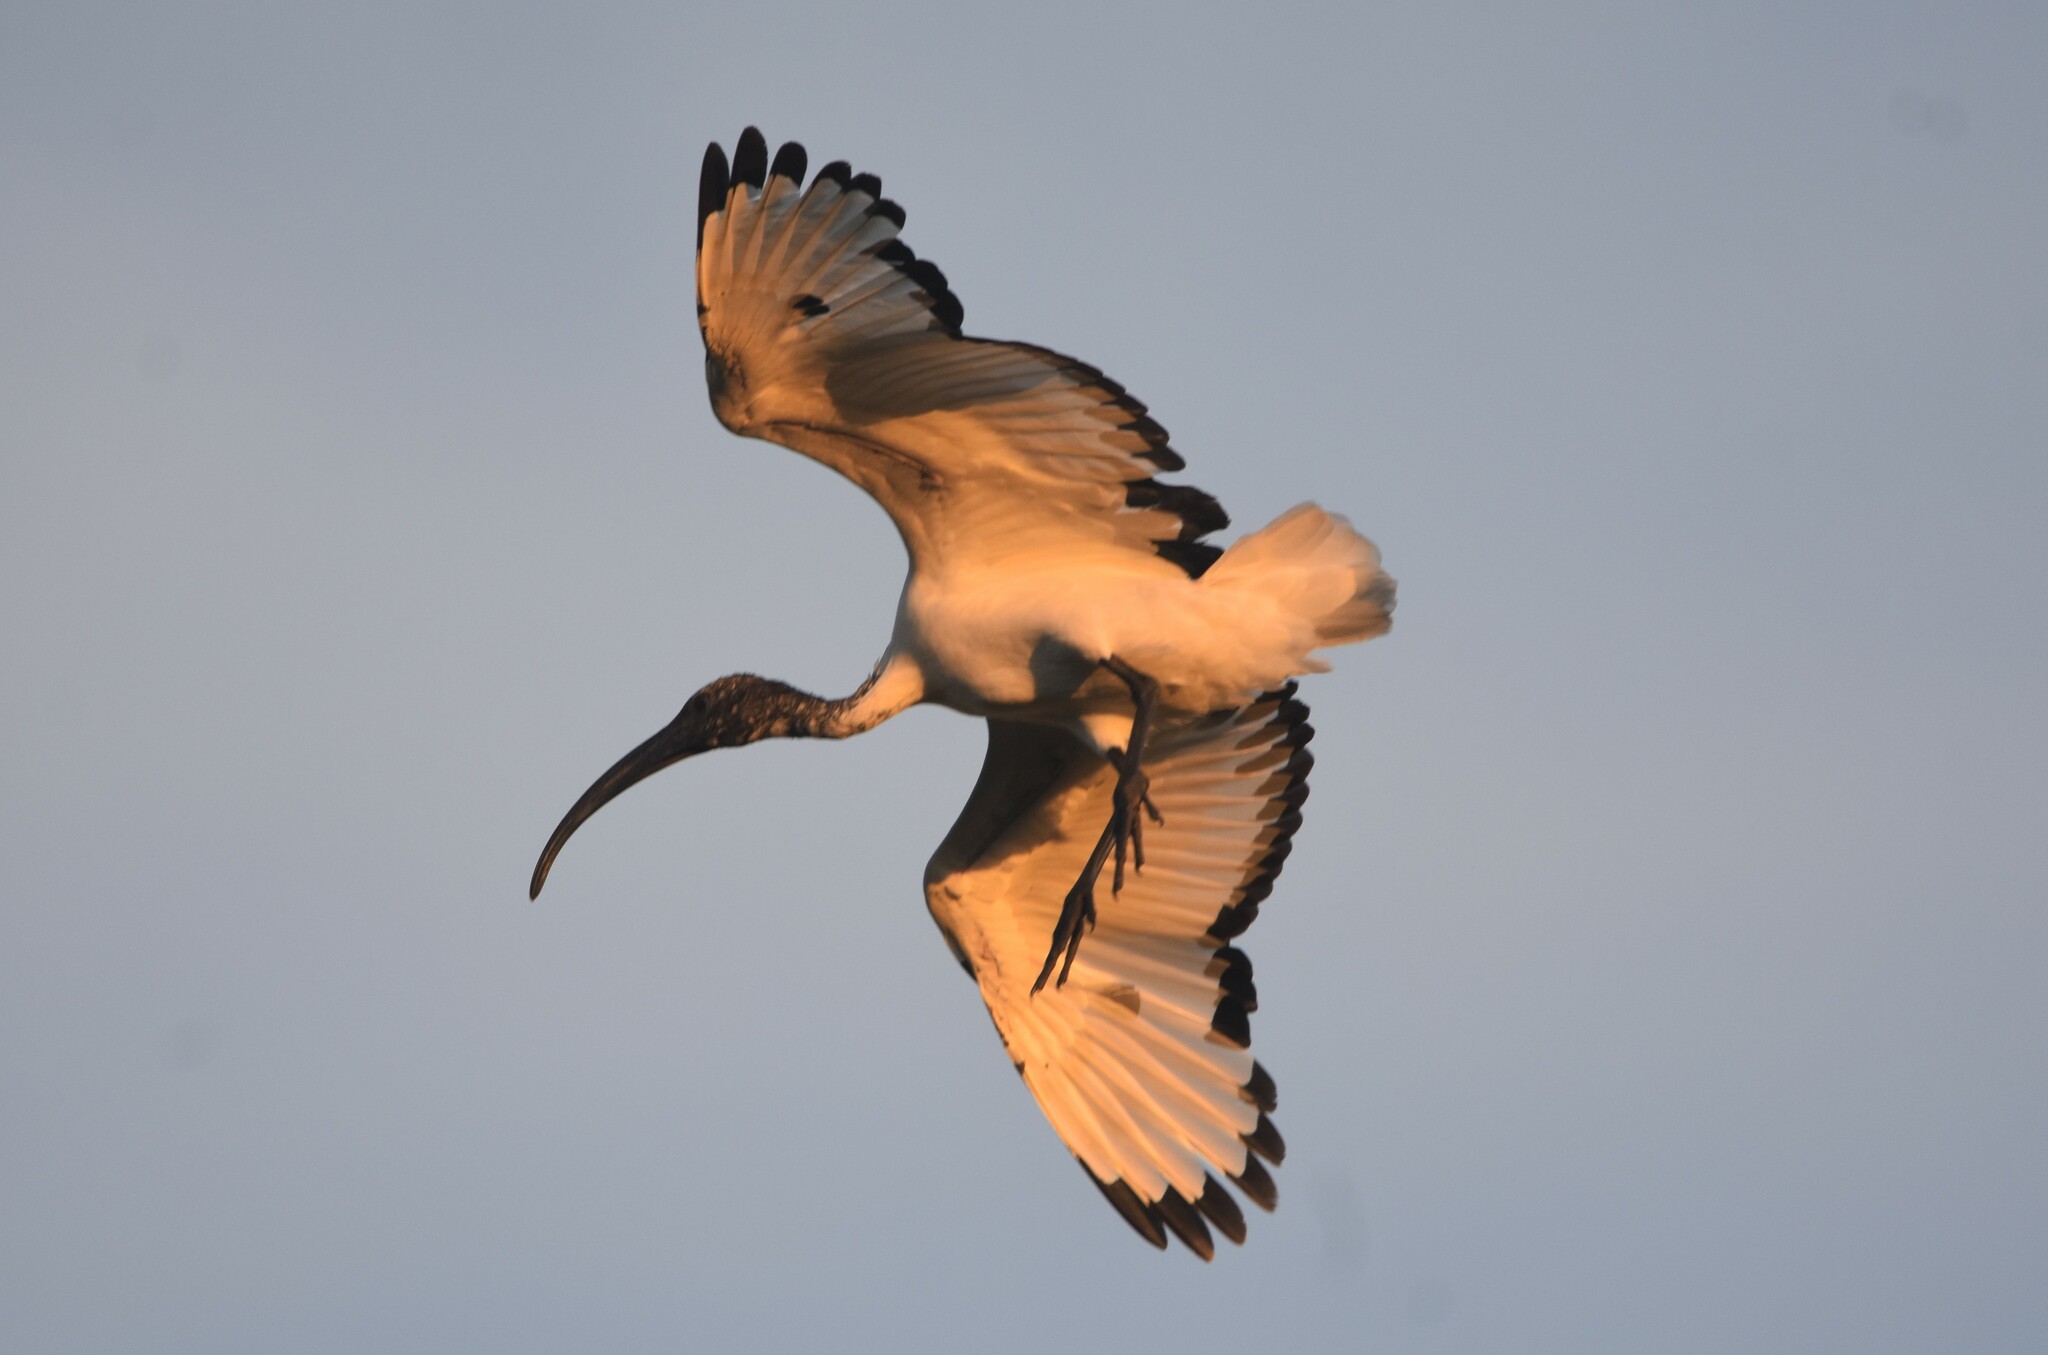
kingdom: Animalia
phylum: Chordata
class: Aves
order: Pelecaniformes
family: Threskiornithidae
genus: Threskiornis
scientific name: Threskiornis aethiopicus
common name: Sacred ibis
